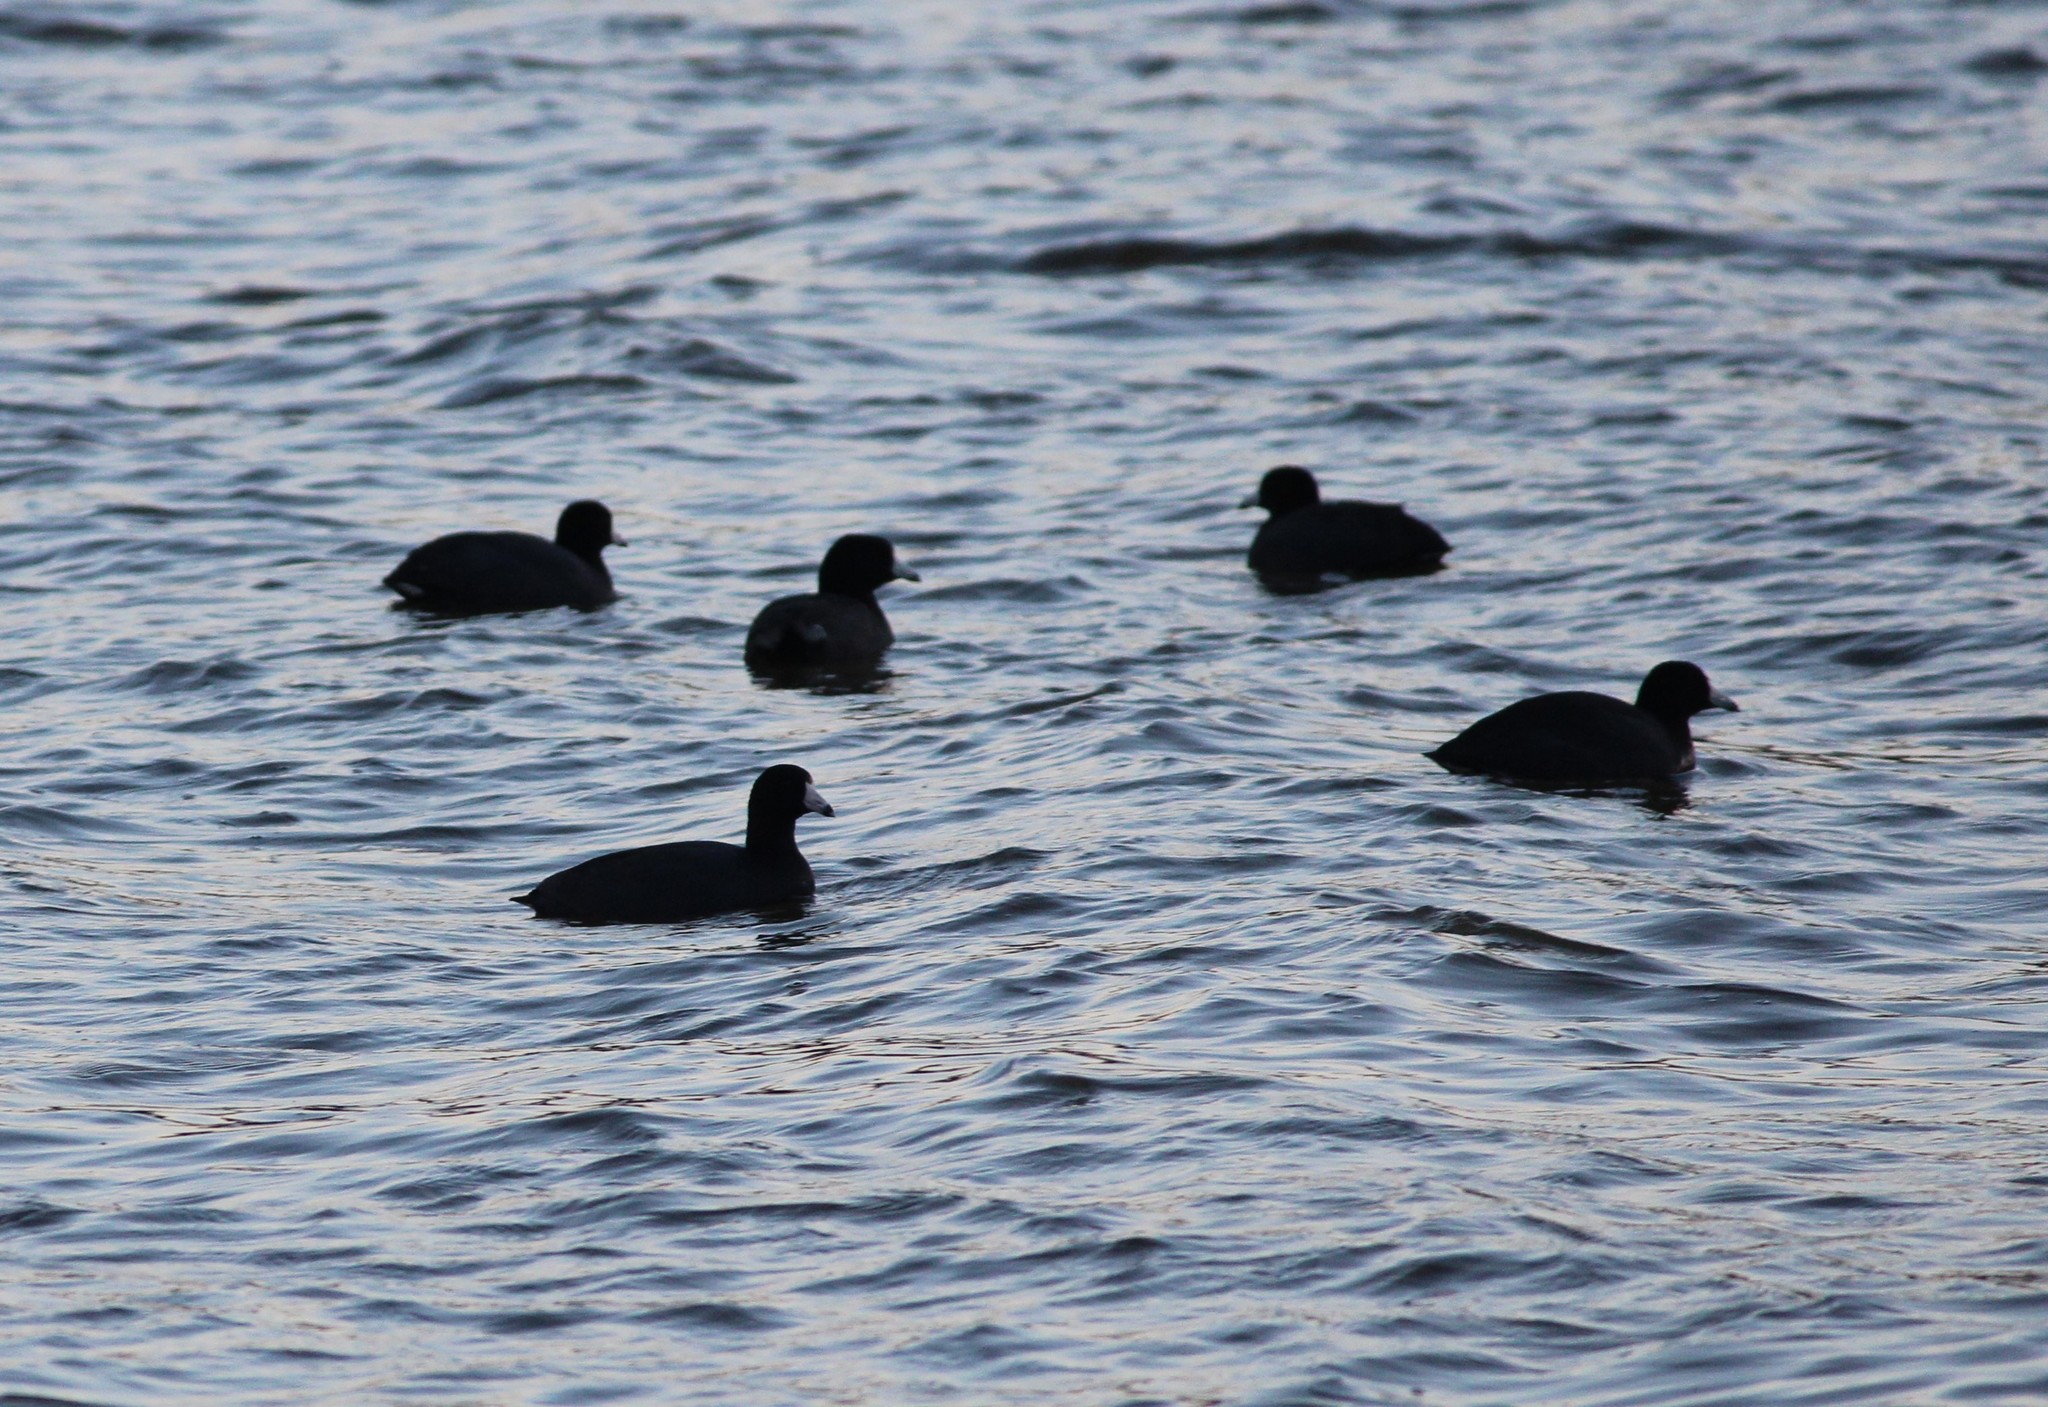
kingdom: Animalia
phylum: Chordata
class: Aves
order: Gruiformes
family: Rallidae
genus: Fulica
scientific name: Fulica americana
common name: American coot
